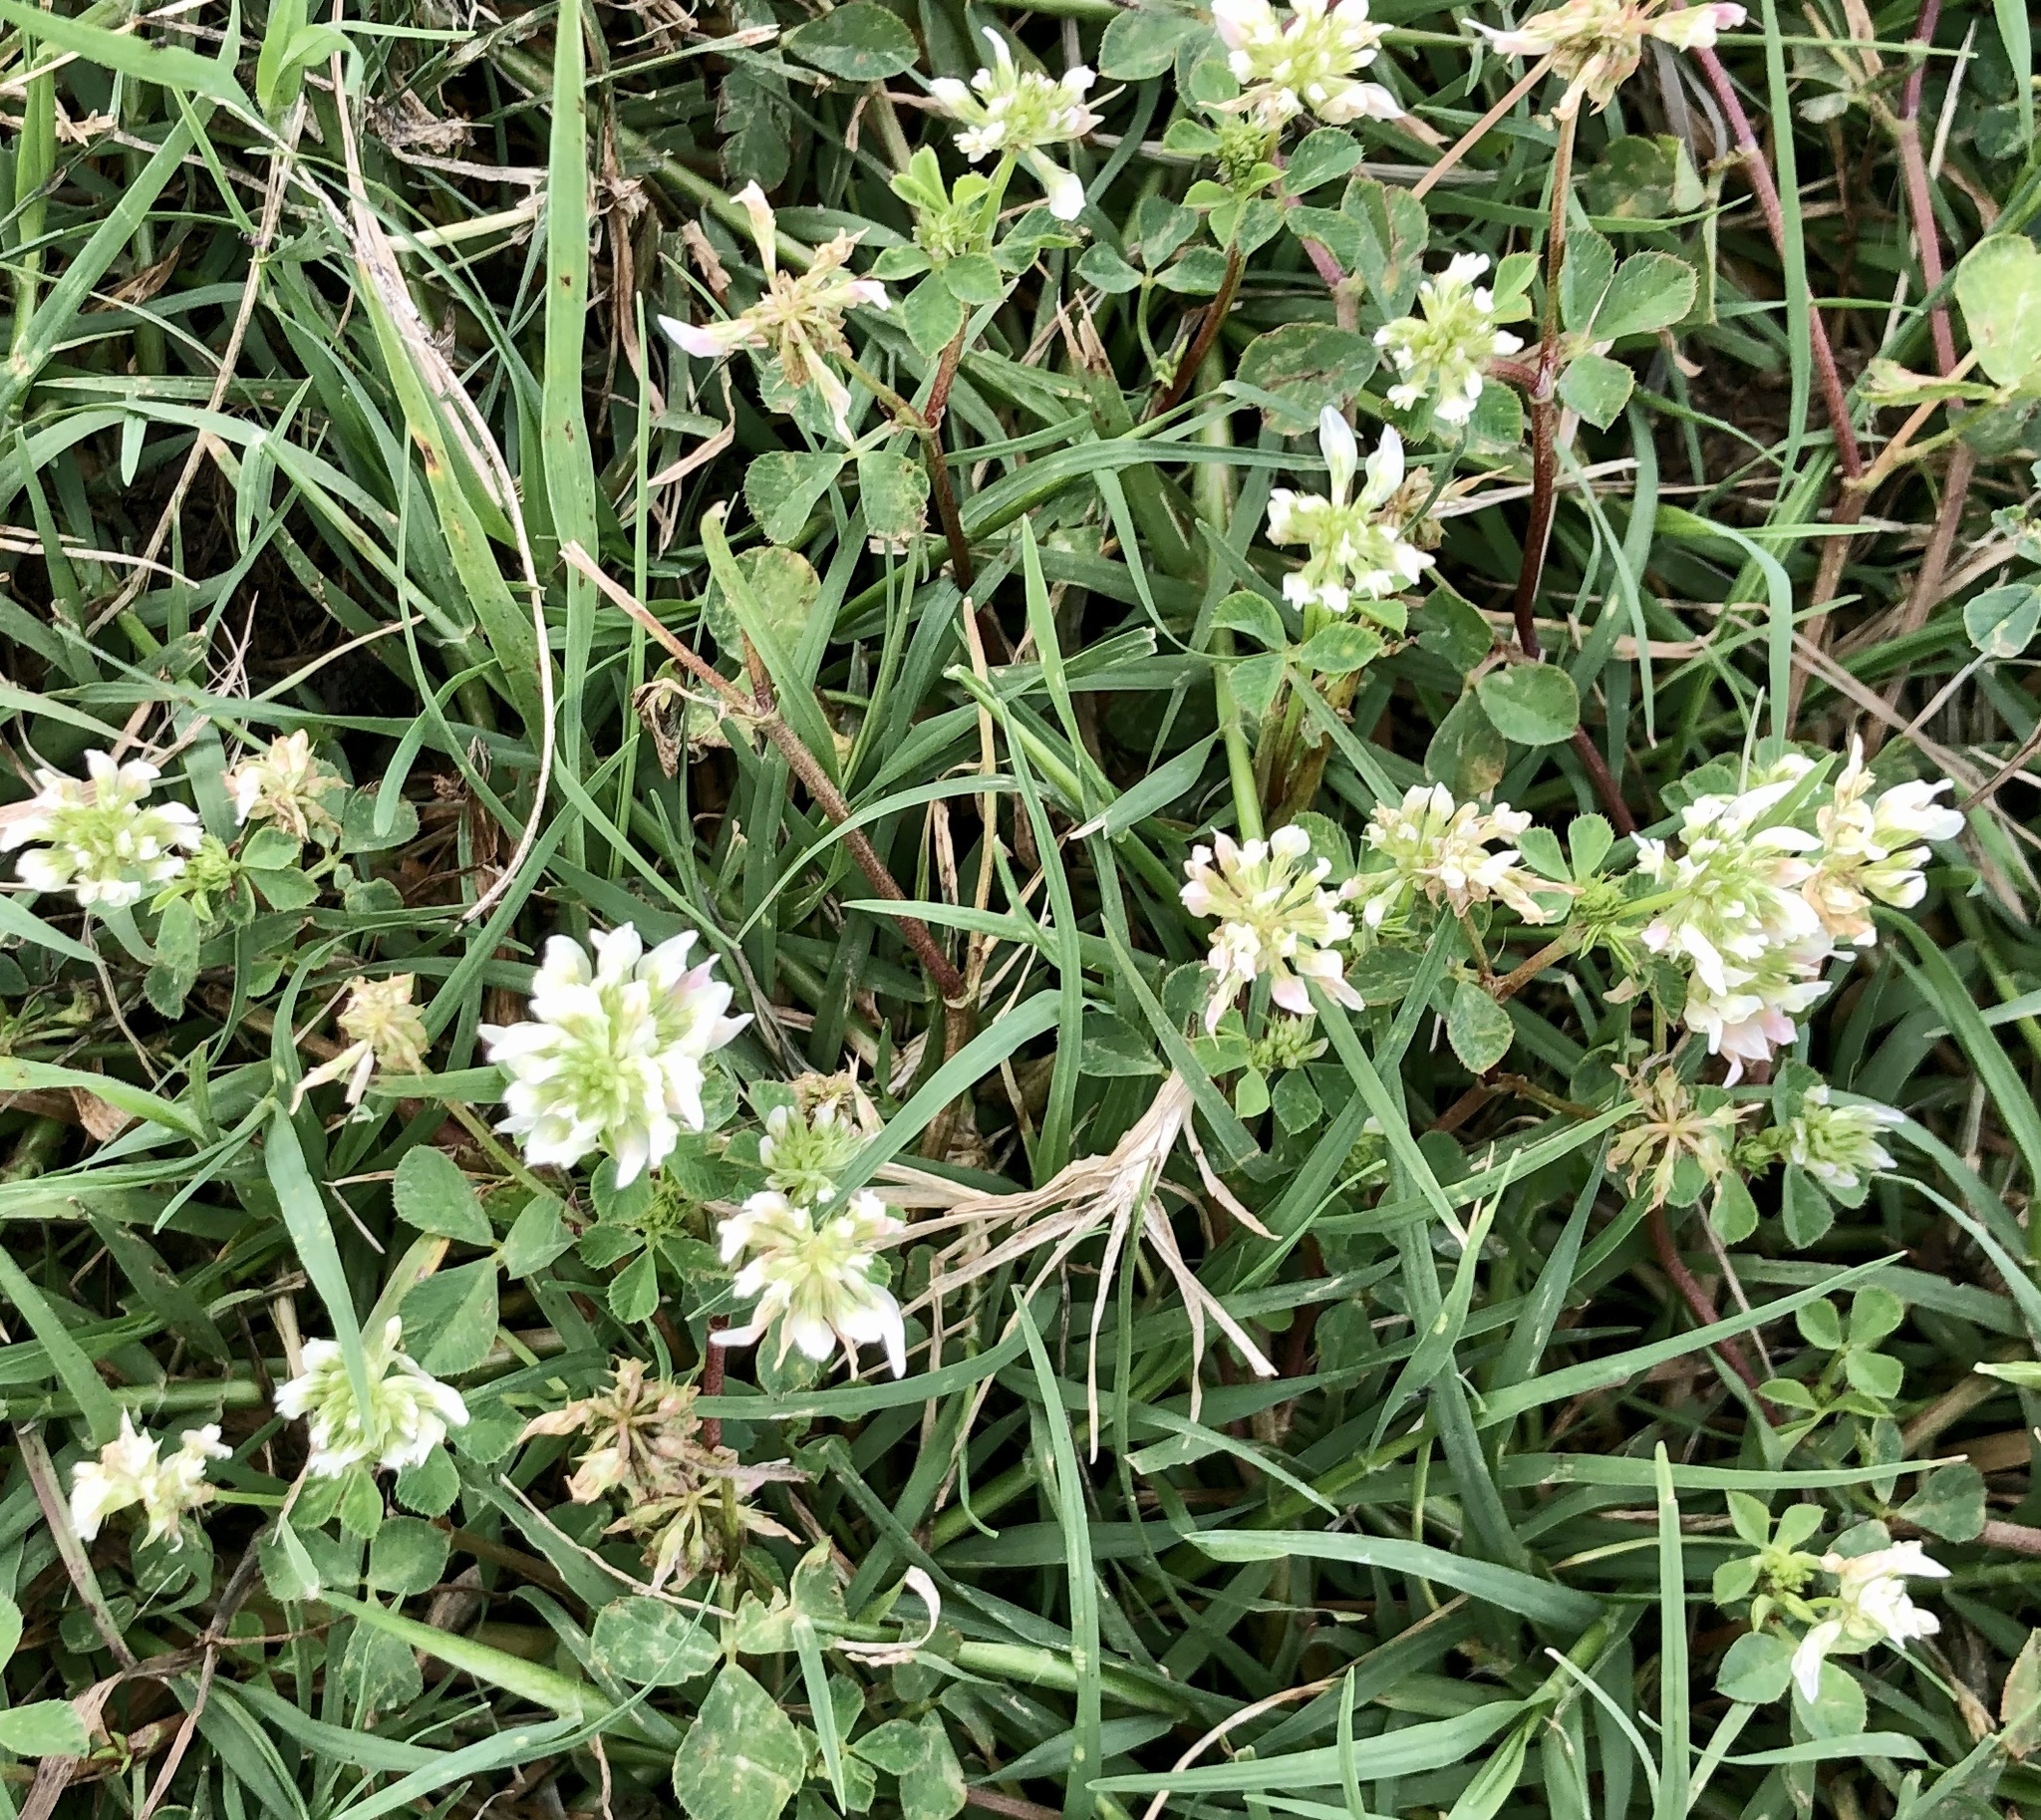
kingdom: Plantae
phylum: Tracheophyta
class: Magnoliopsida
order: Fabales
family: Fabaceae
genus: Trifolium
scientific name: Trifolium repens
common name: White clover
